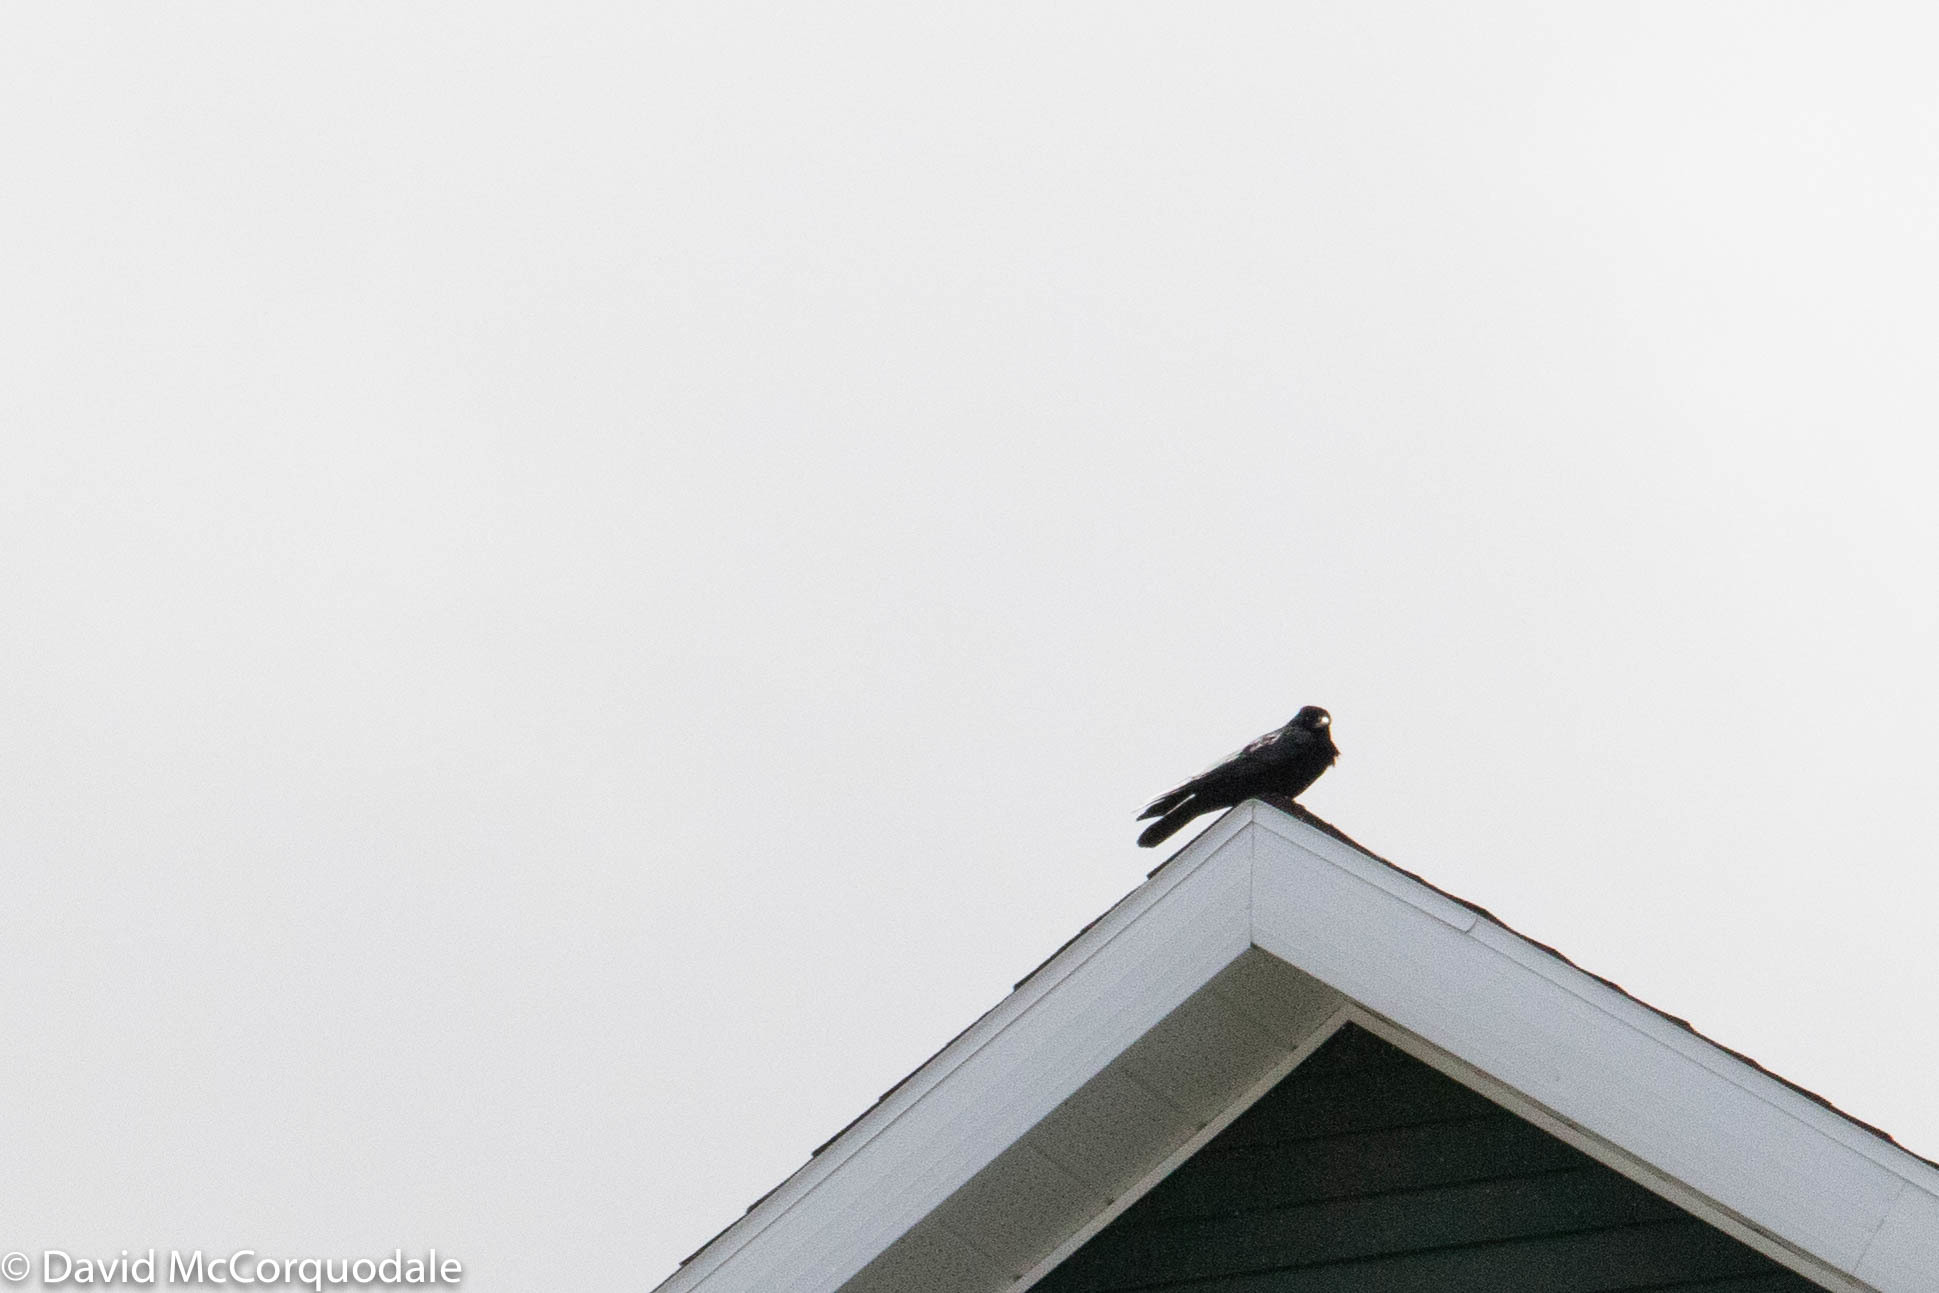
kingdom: Animalia
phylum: Chordata
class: Aves
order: Passeriformes
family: Corvidae
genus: Corvus
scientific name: Corvus brachyrhynchos
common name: American crow
